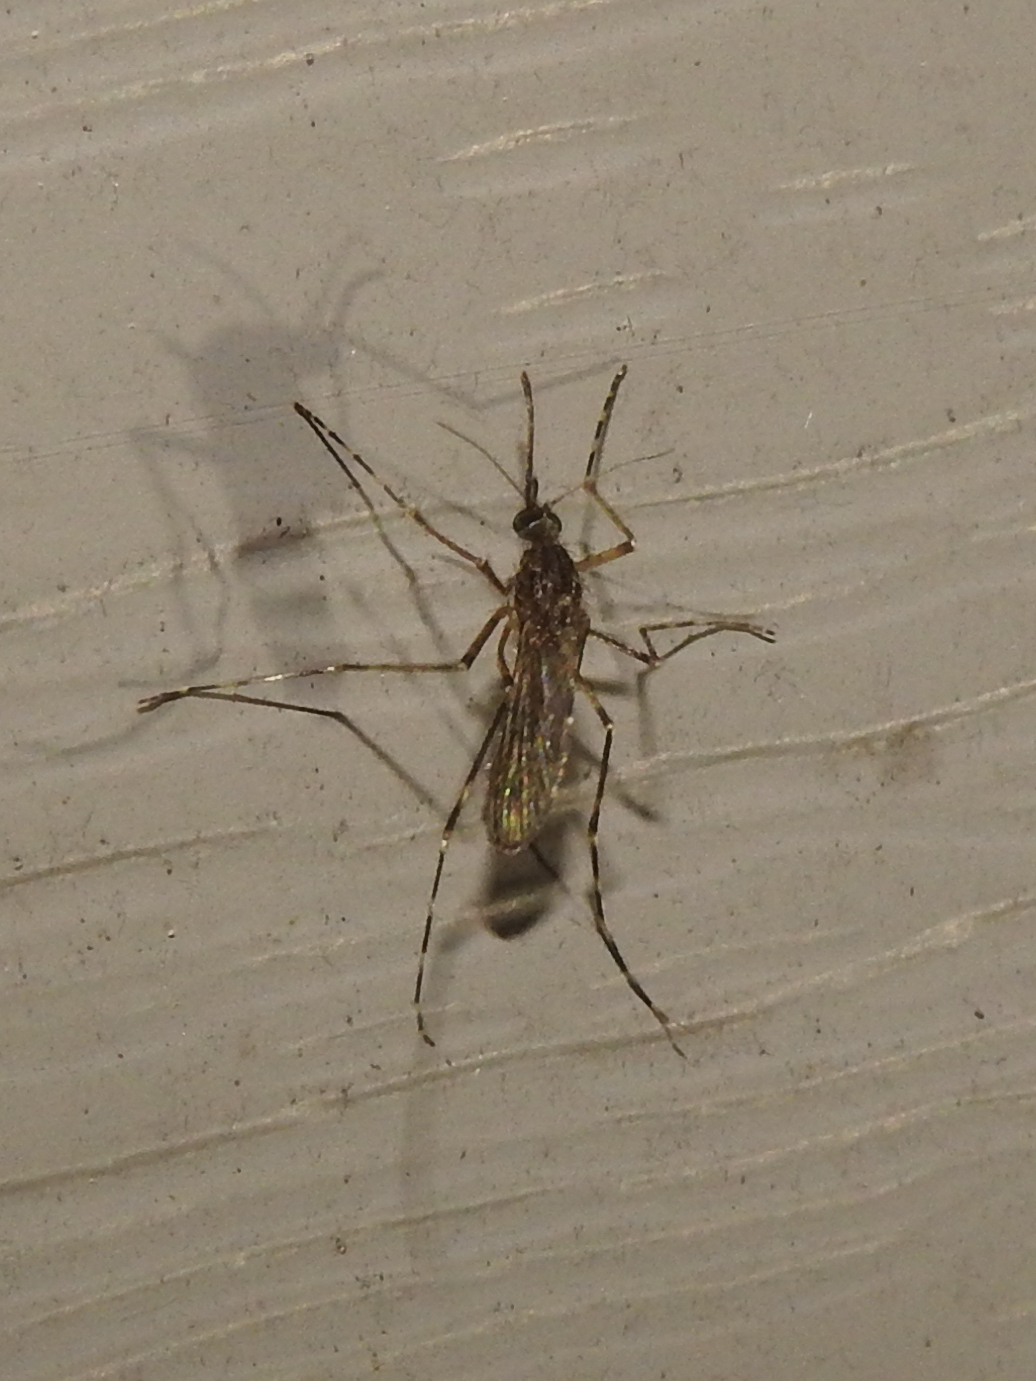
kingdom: Animalia
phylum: Arthropoda
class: Insecta
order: Diptera
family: Culicidae
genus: Coquillettidia
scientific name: Coquillettidia perturbans
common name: Cattail mosquito
